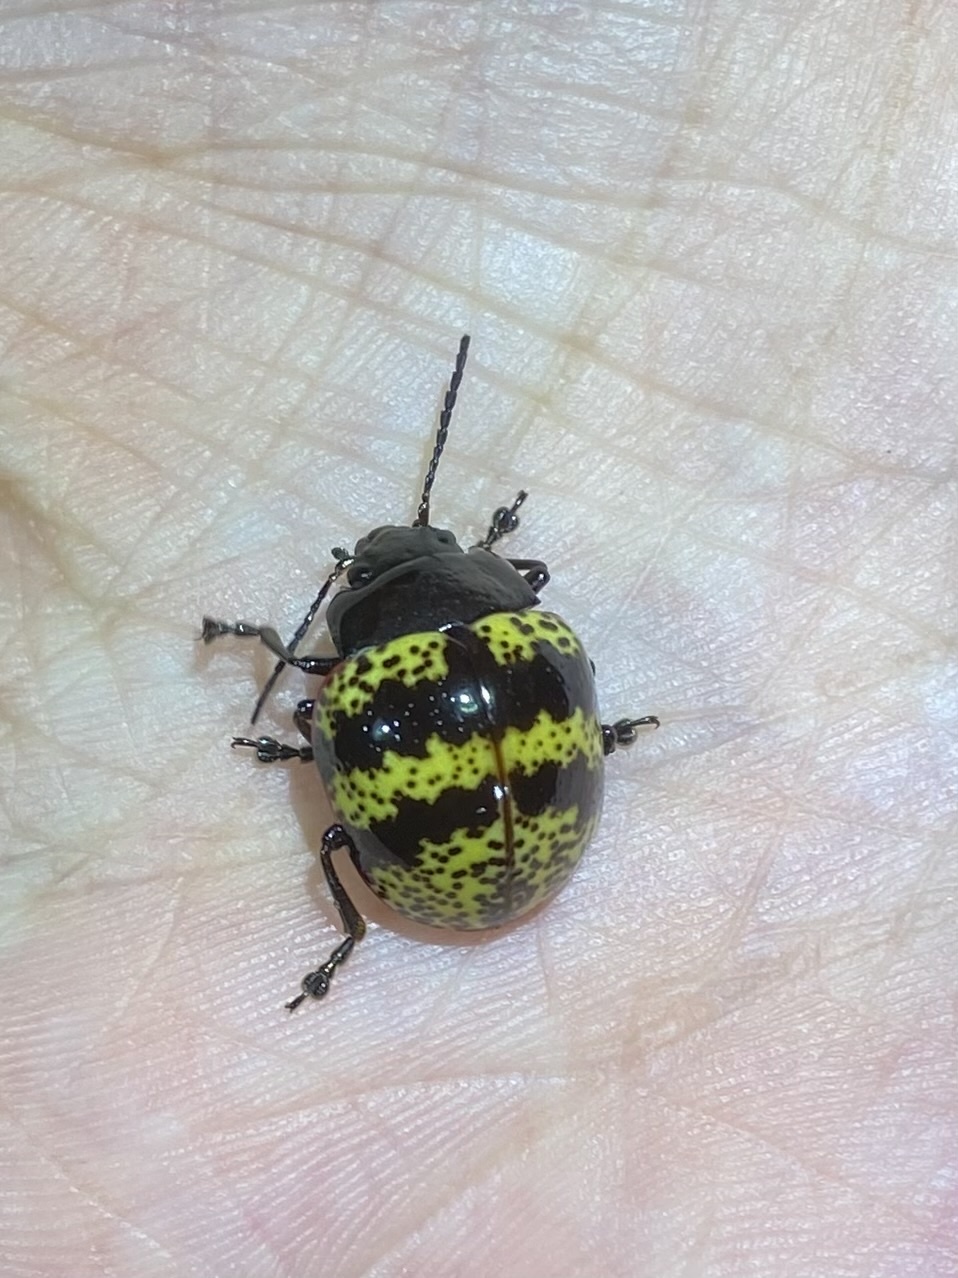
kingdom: Animalia
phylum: Arthropoda
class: Insecta
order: Coleoptera
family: Chrysomelidae
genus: Platyphora
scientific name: Platyphora petulans
